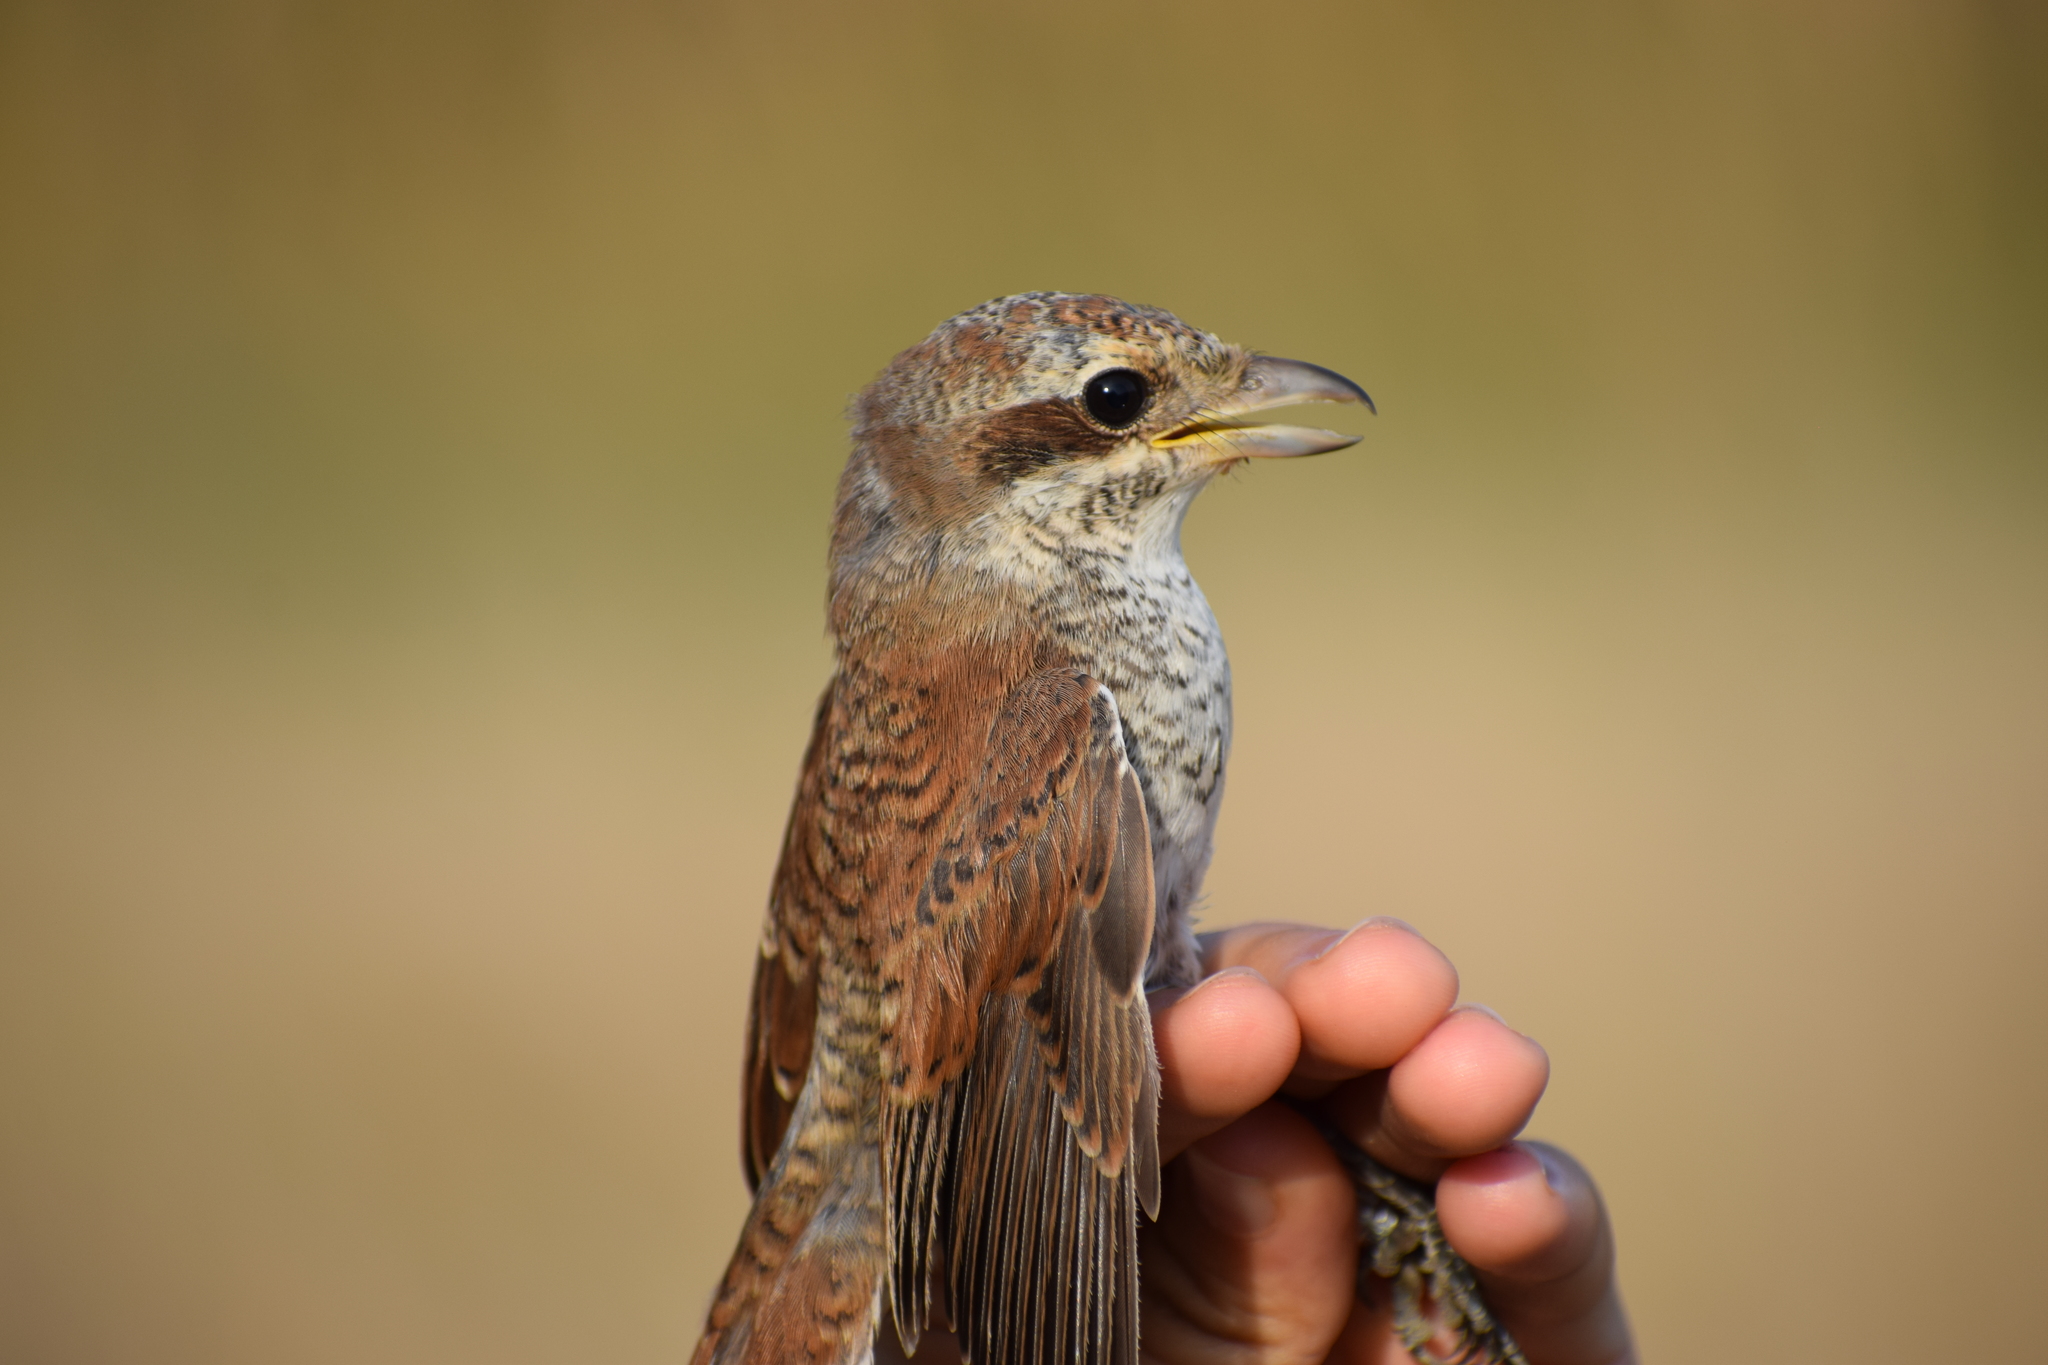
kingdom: Animalia
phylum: Chordata
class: Aves
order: Passeriformes
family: Laniidae
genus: Lanius
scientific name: Lanius collurio
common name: Red-backed shrike
